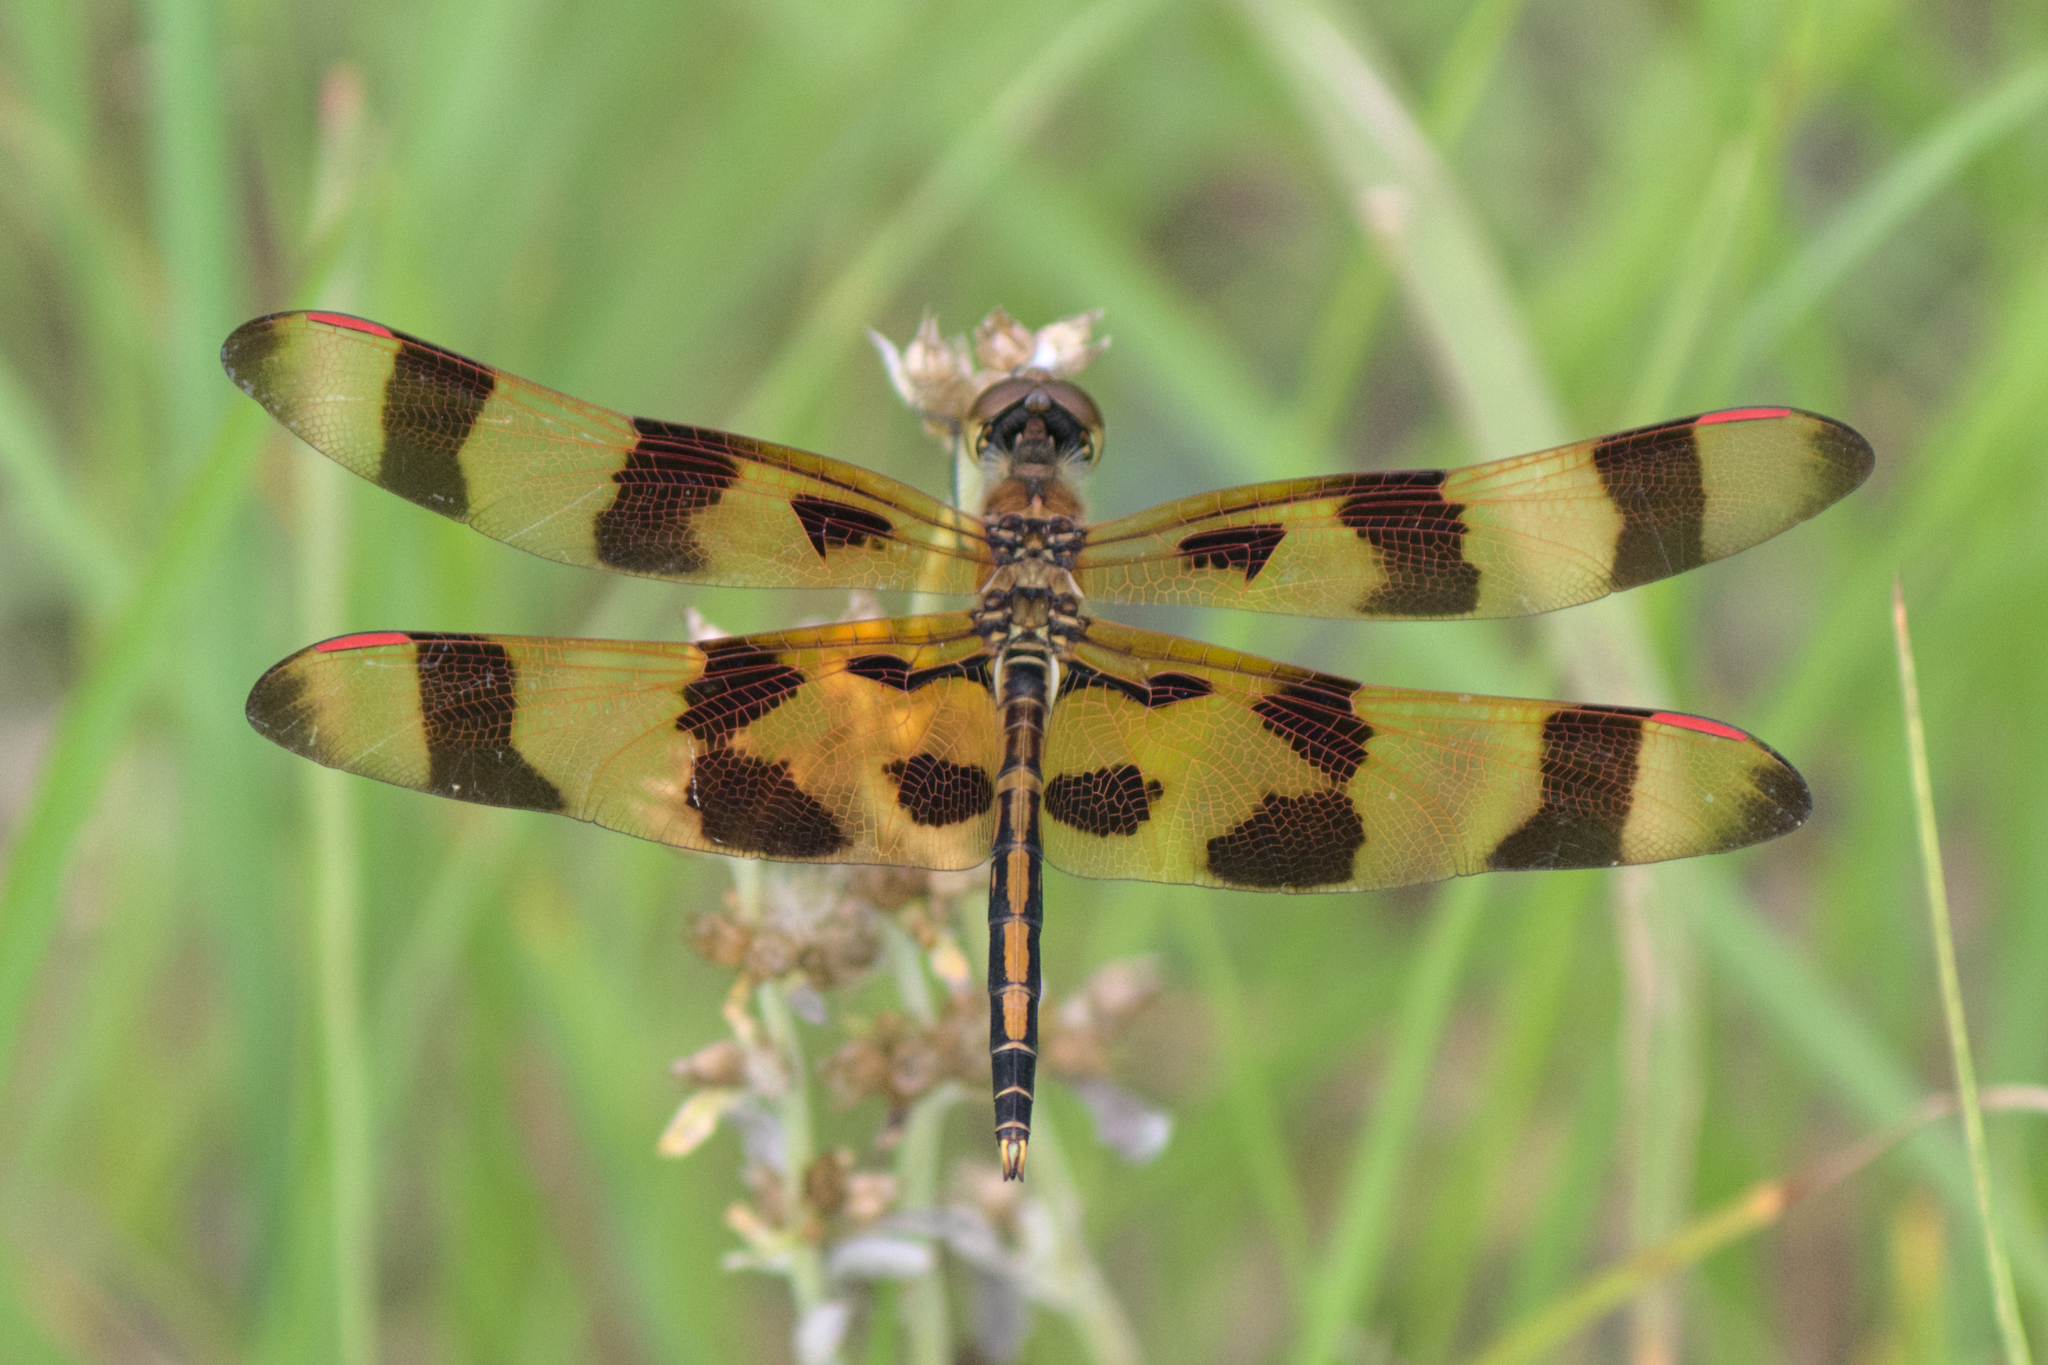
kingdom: Animalia
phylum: Arthropoda
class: Insecta
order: Odonata
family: Libellulidae
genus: Celithemis
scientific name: Celithemis eponina
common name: Halloween pennant
